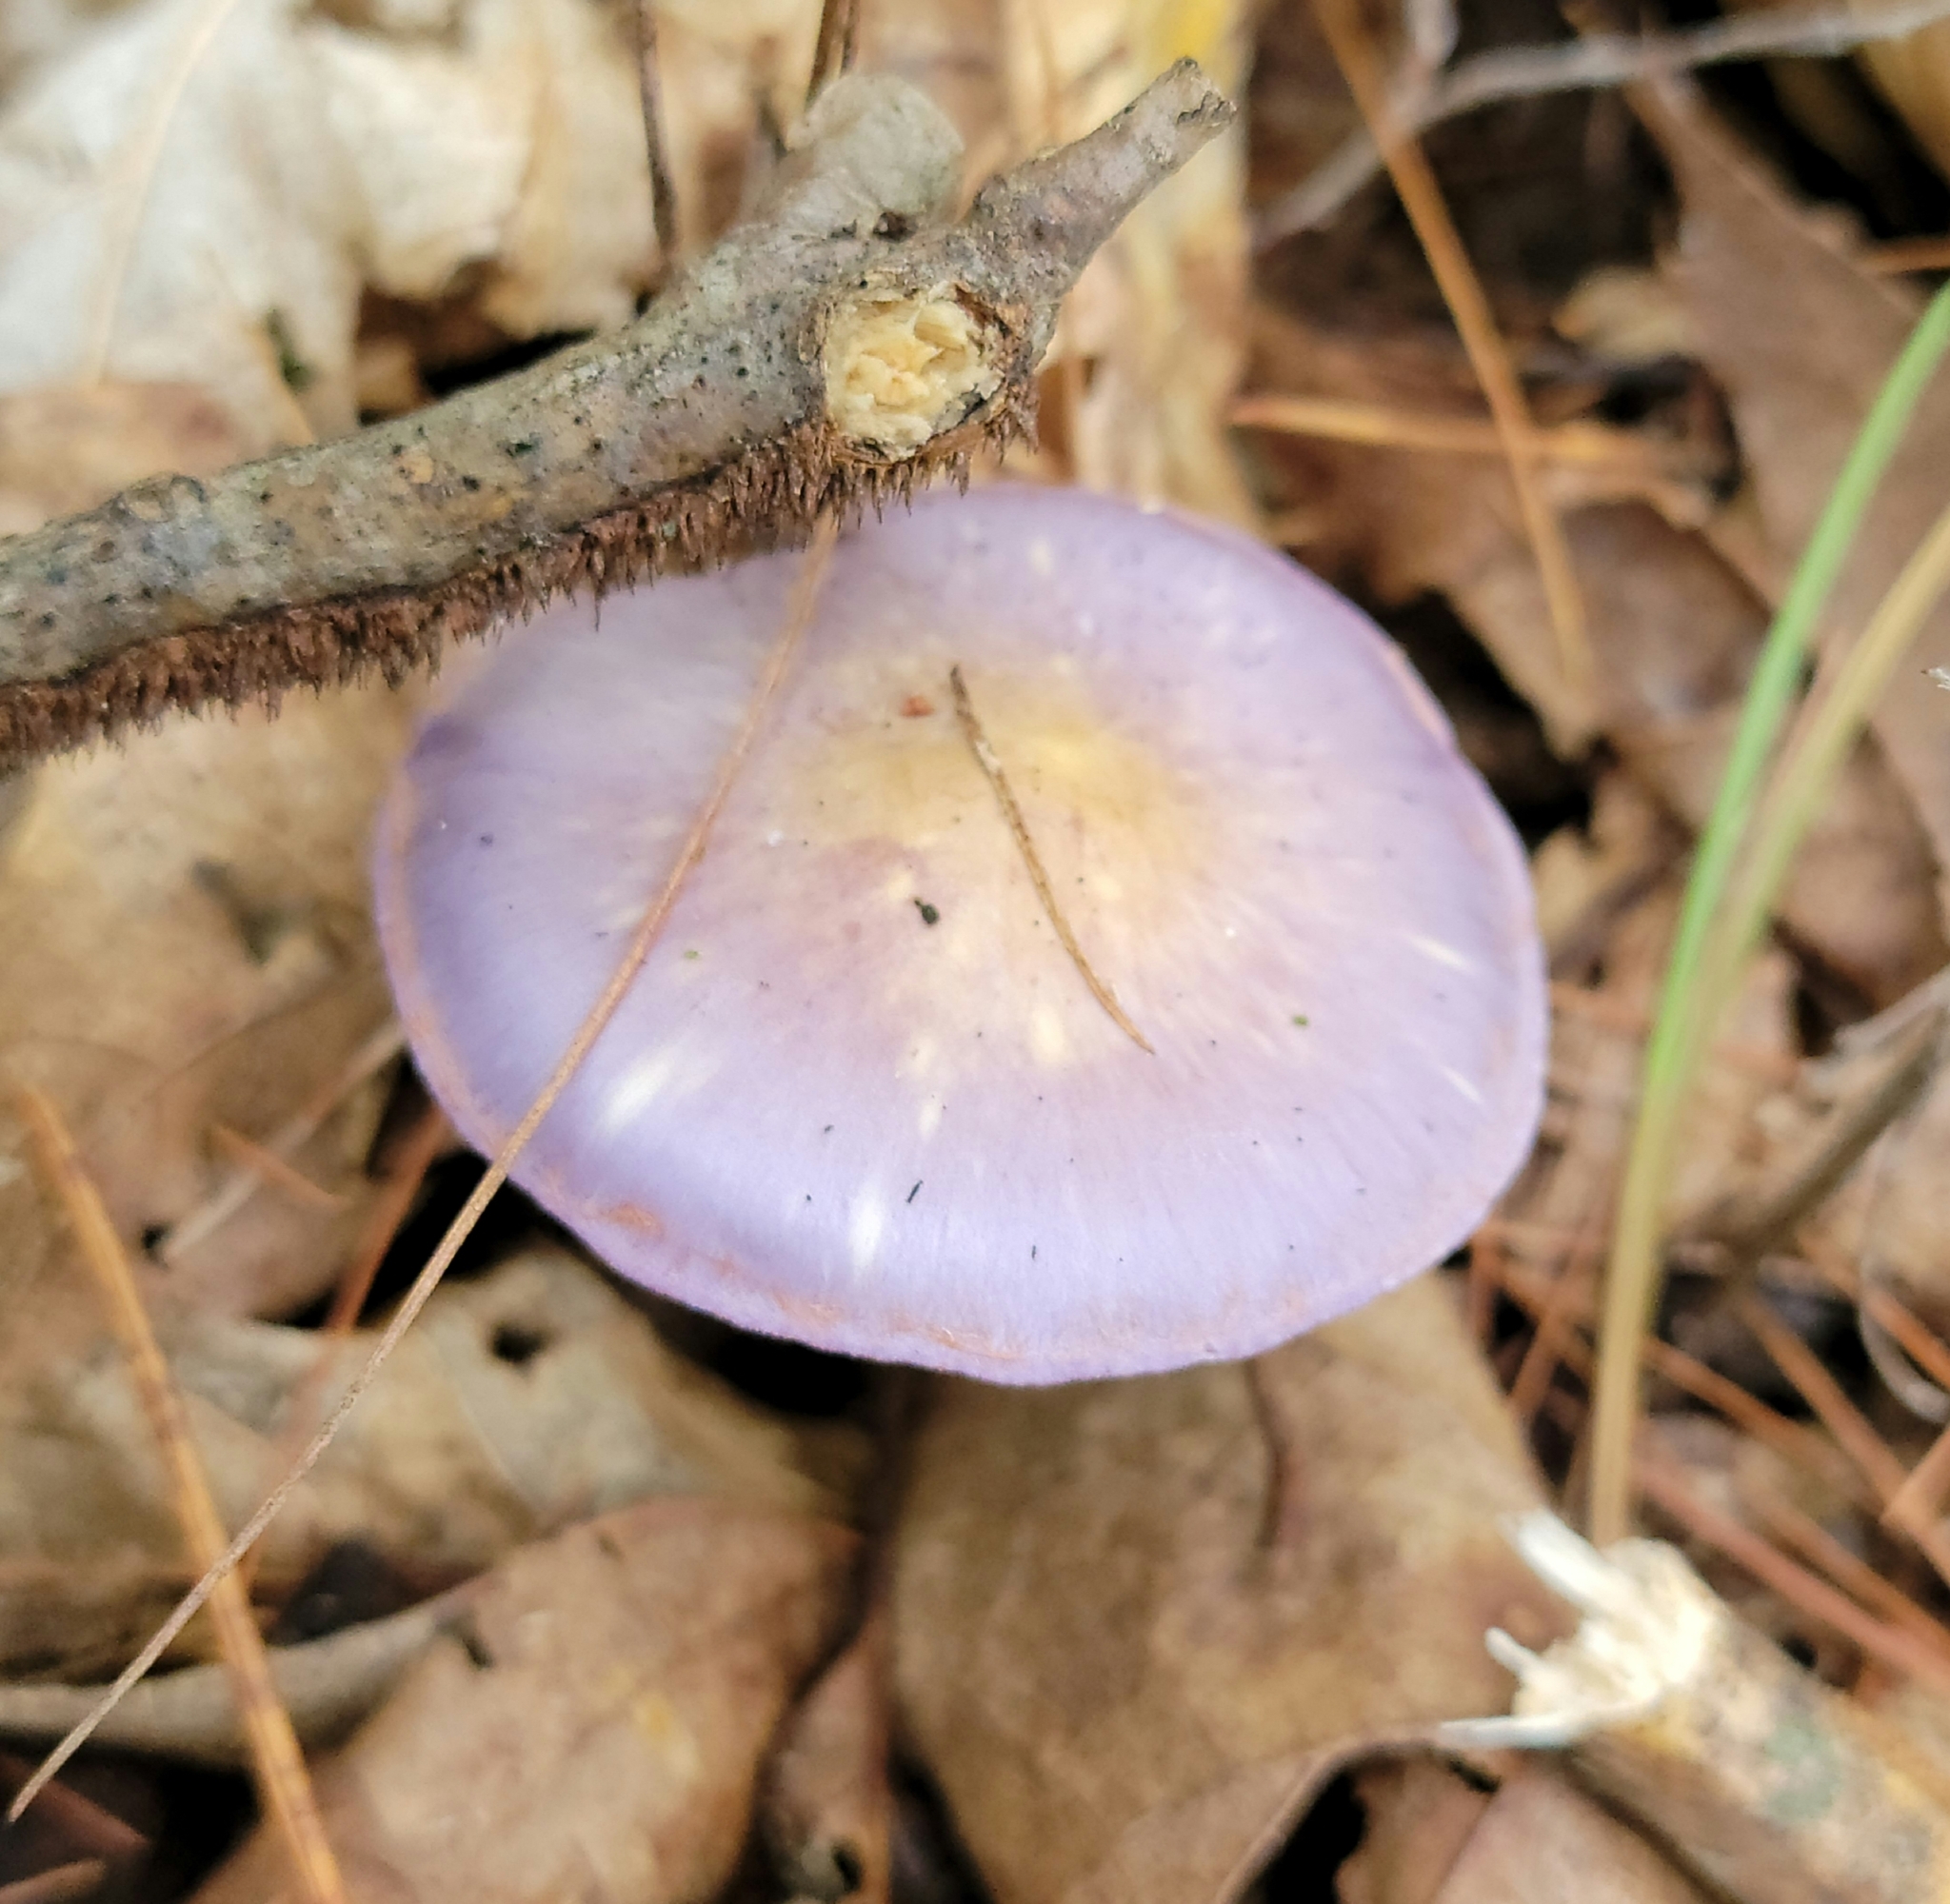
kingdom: Fungi
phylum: Basidiomycota
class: Agaricomycetes
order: Agaricales
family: Cortinariaceae
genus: Cortinarius
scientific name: Cortinarius iodes
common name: Viscid violet cort
